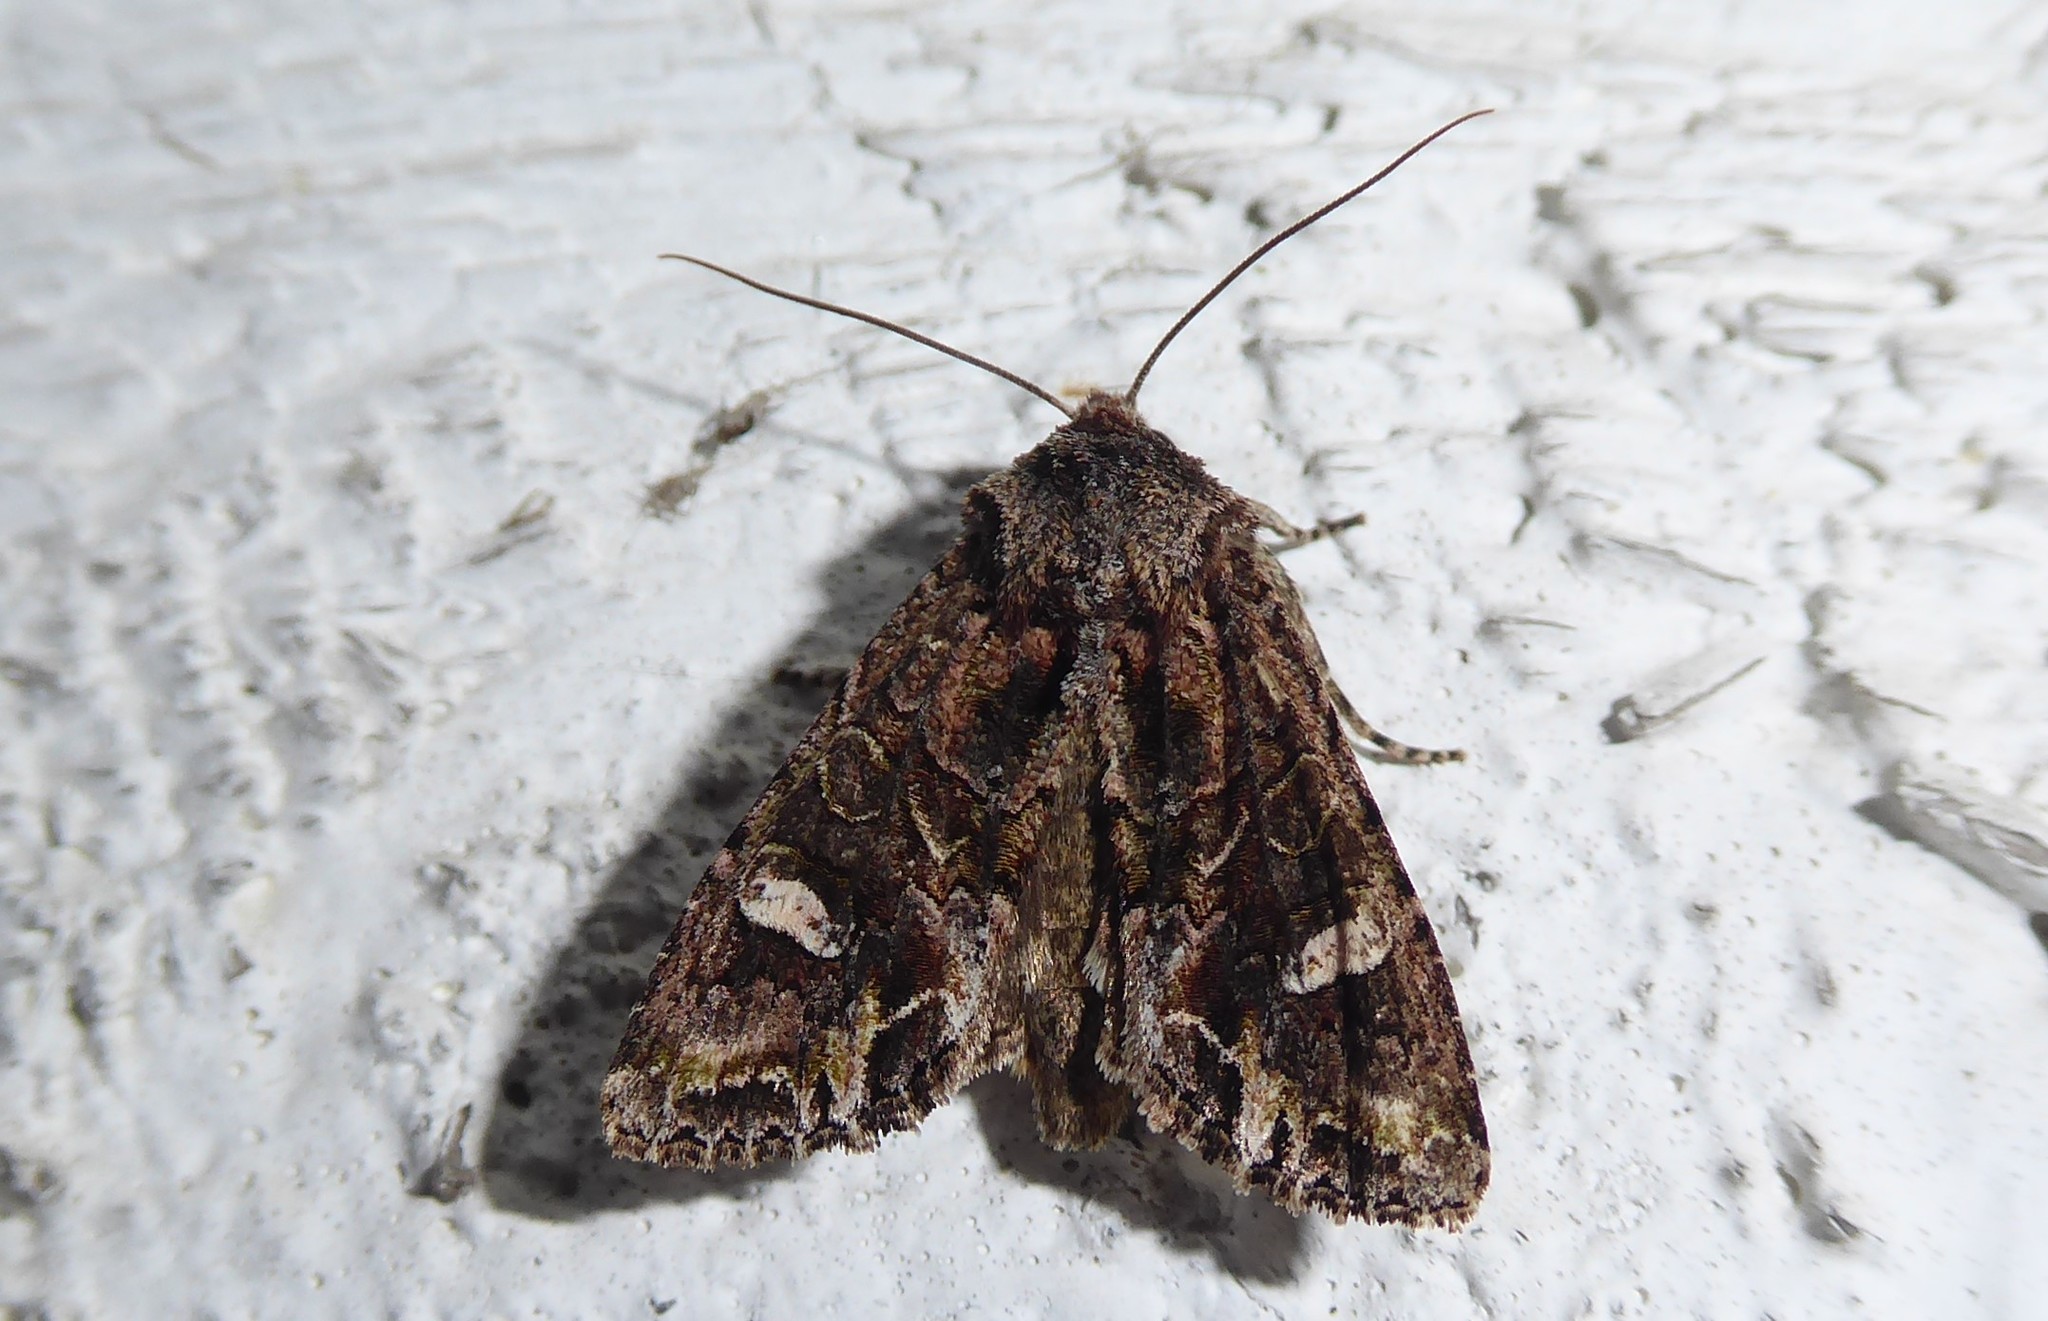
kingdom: Animalia
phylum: Arthropoda
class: Insecta
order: Lepidoptera
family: Noctuidae
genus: Ichneutica
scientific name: Ichneutica insignis
